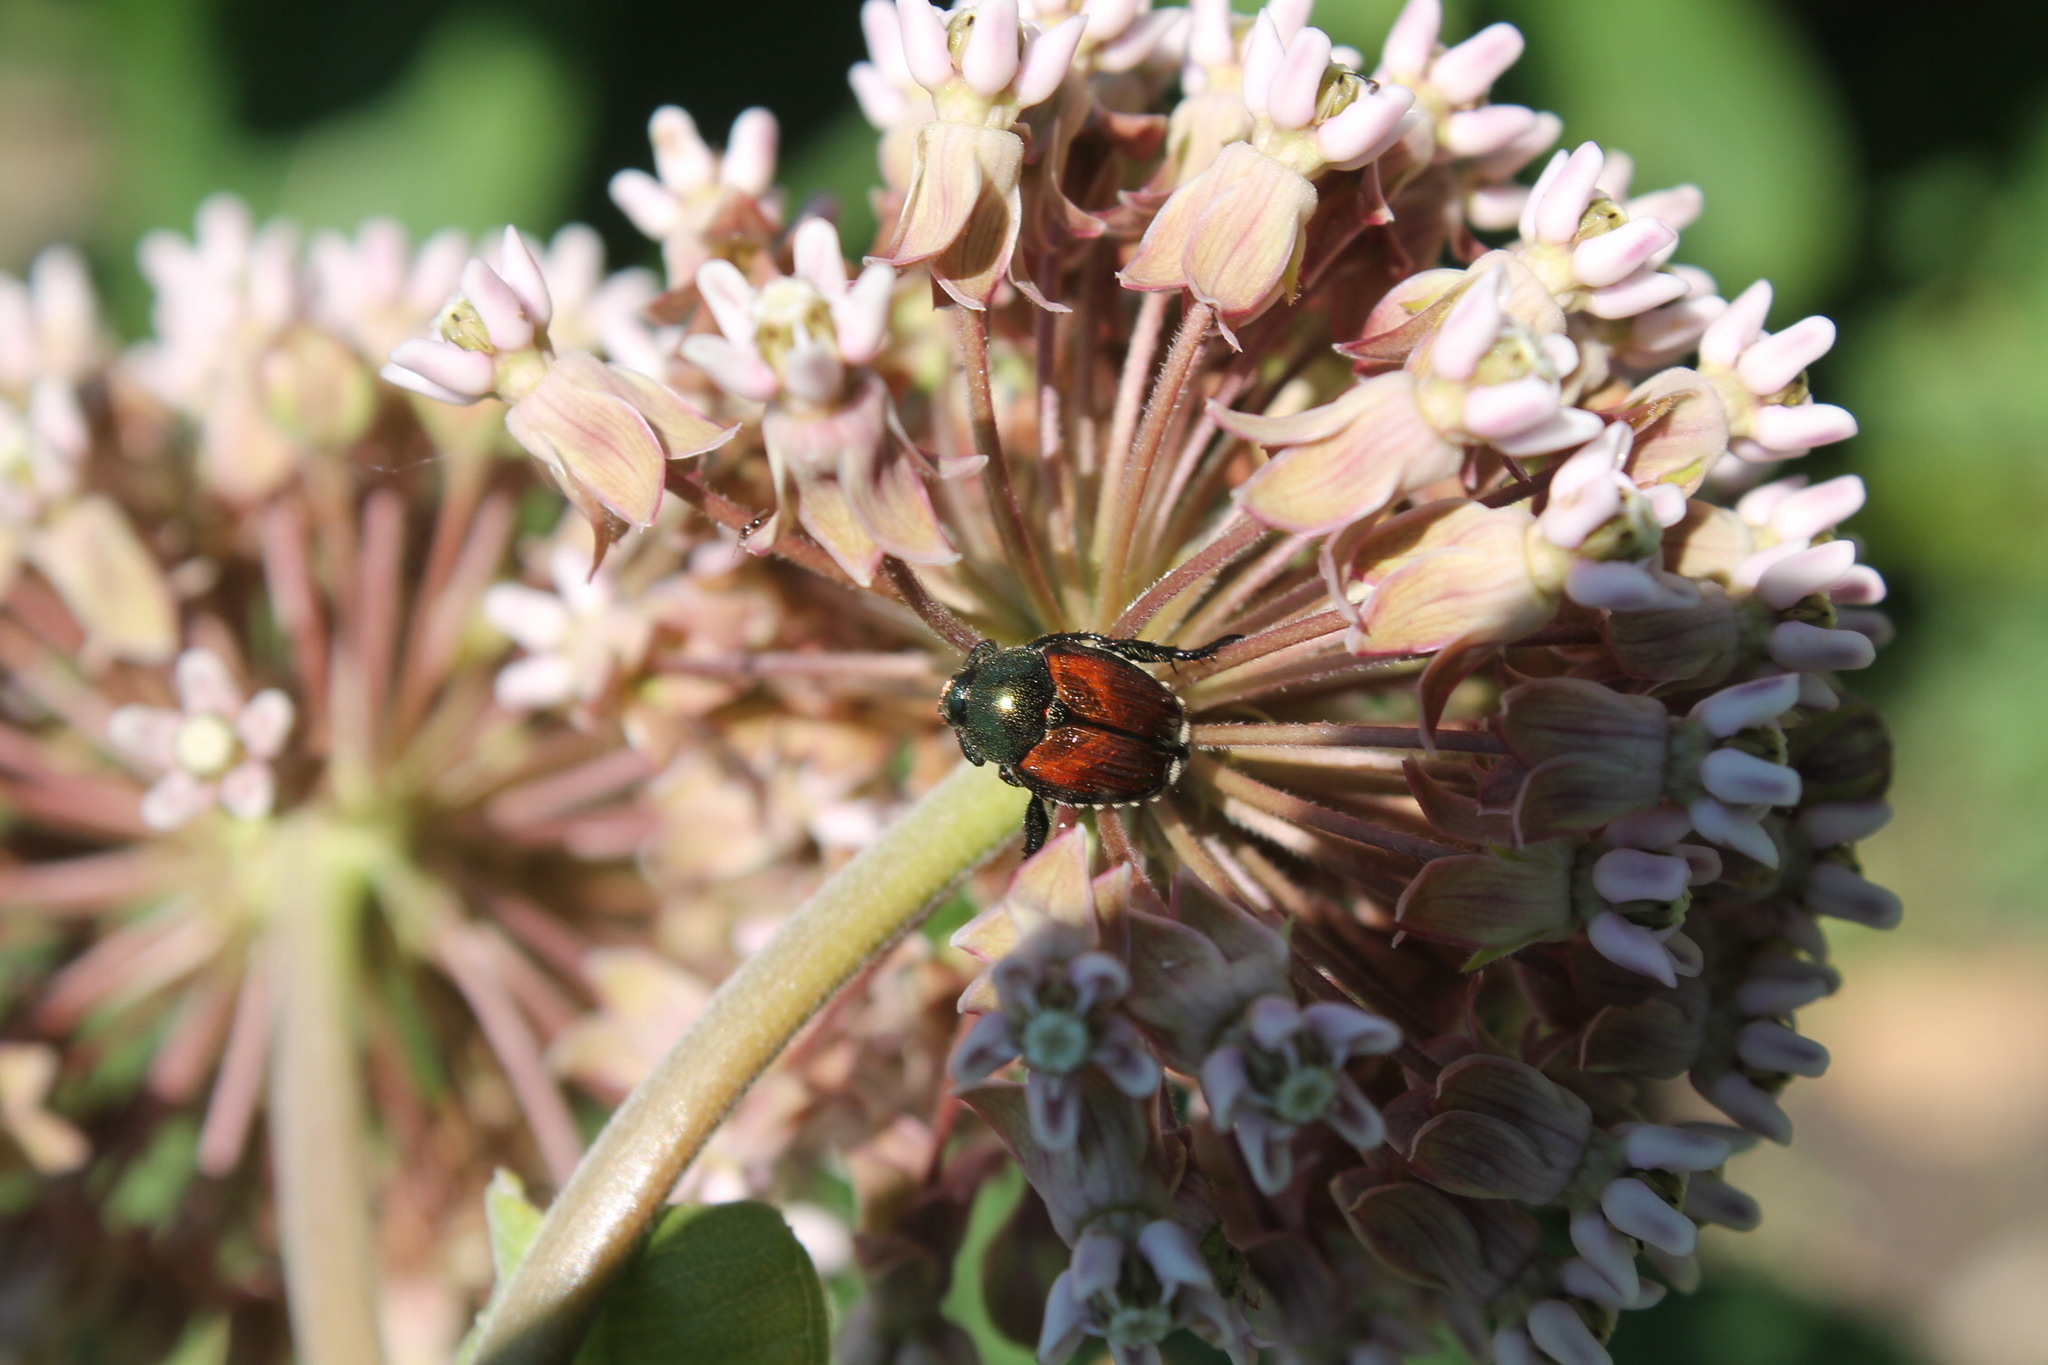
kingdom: Animalia
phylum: Arthropoda
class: Insecta
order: Coleoptera
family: Scarabaeidae
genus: Popillia
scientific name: Popillia japonica
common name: Japanese beetle
